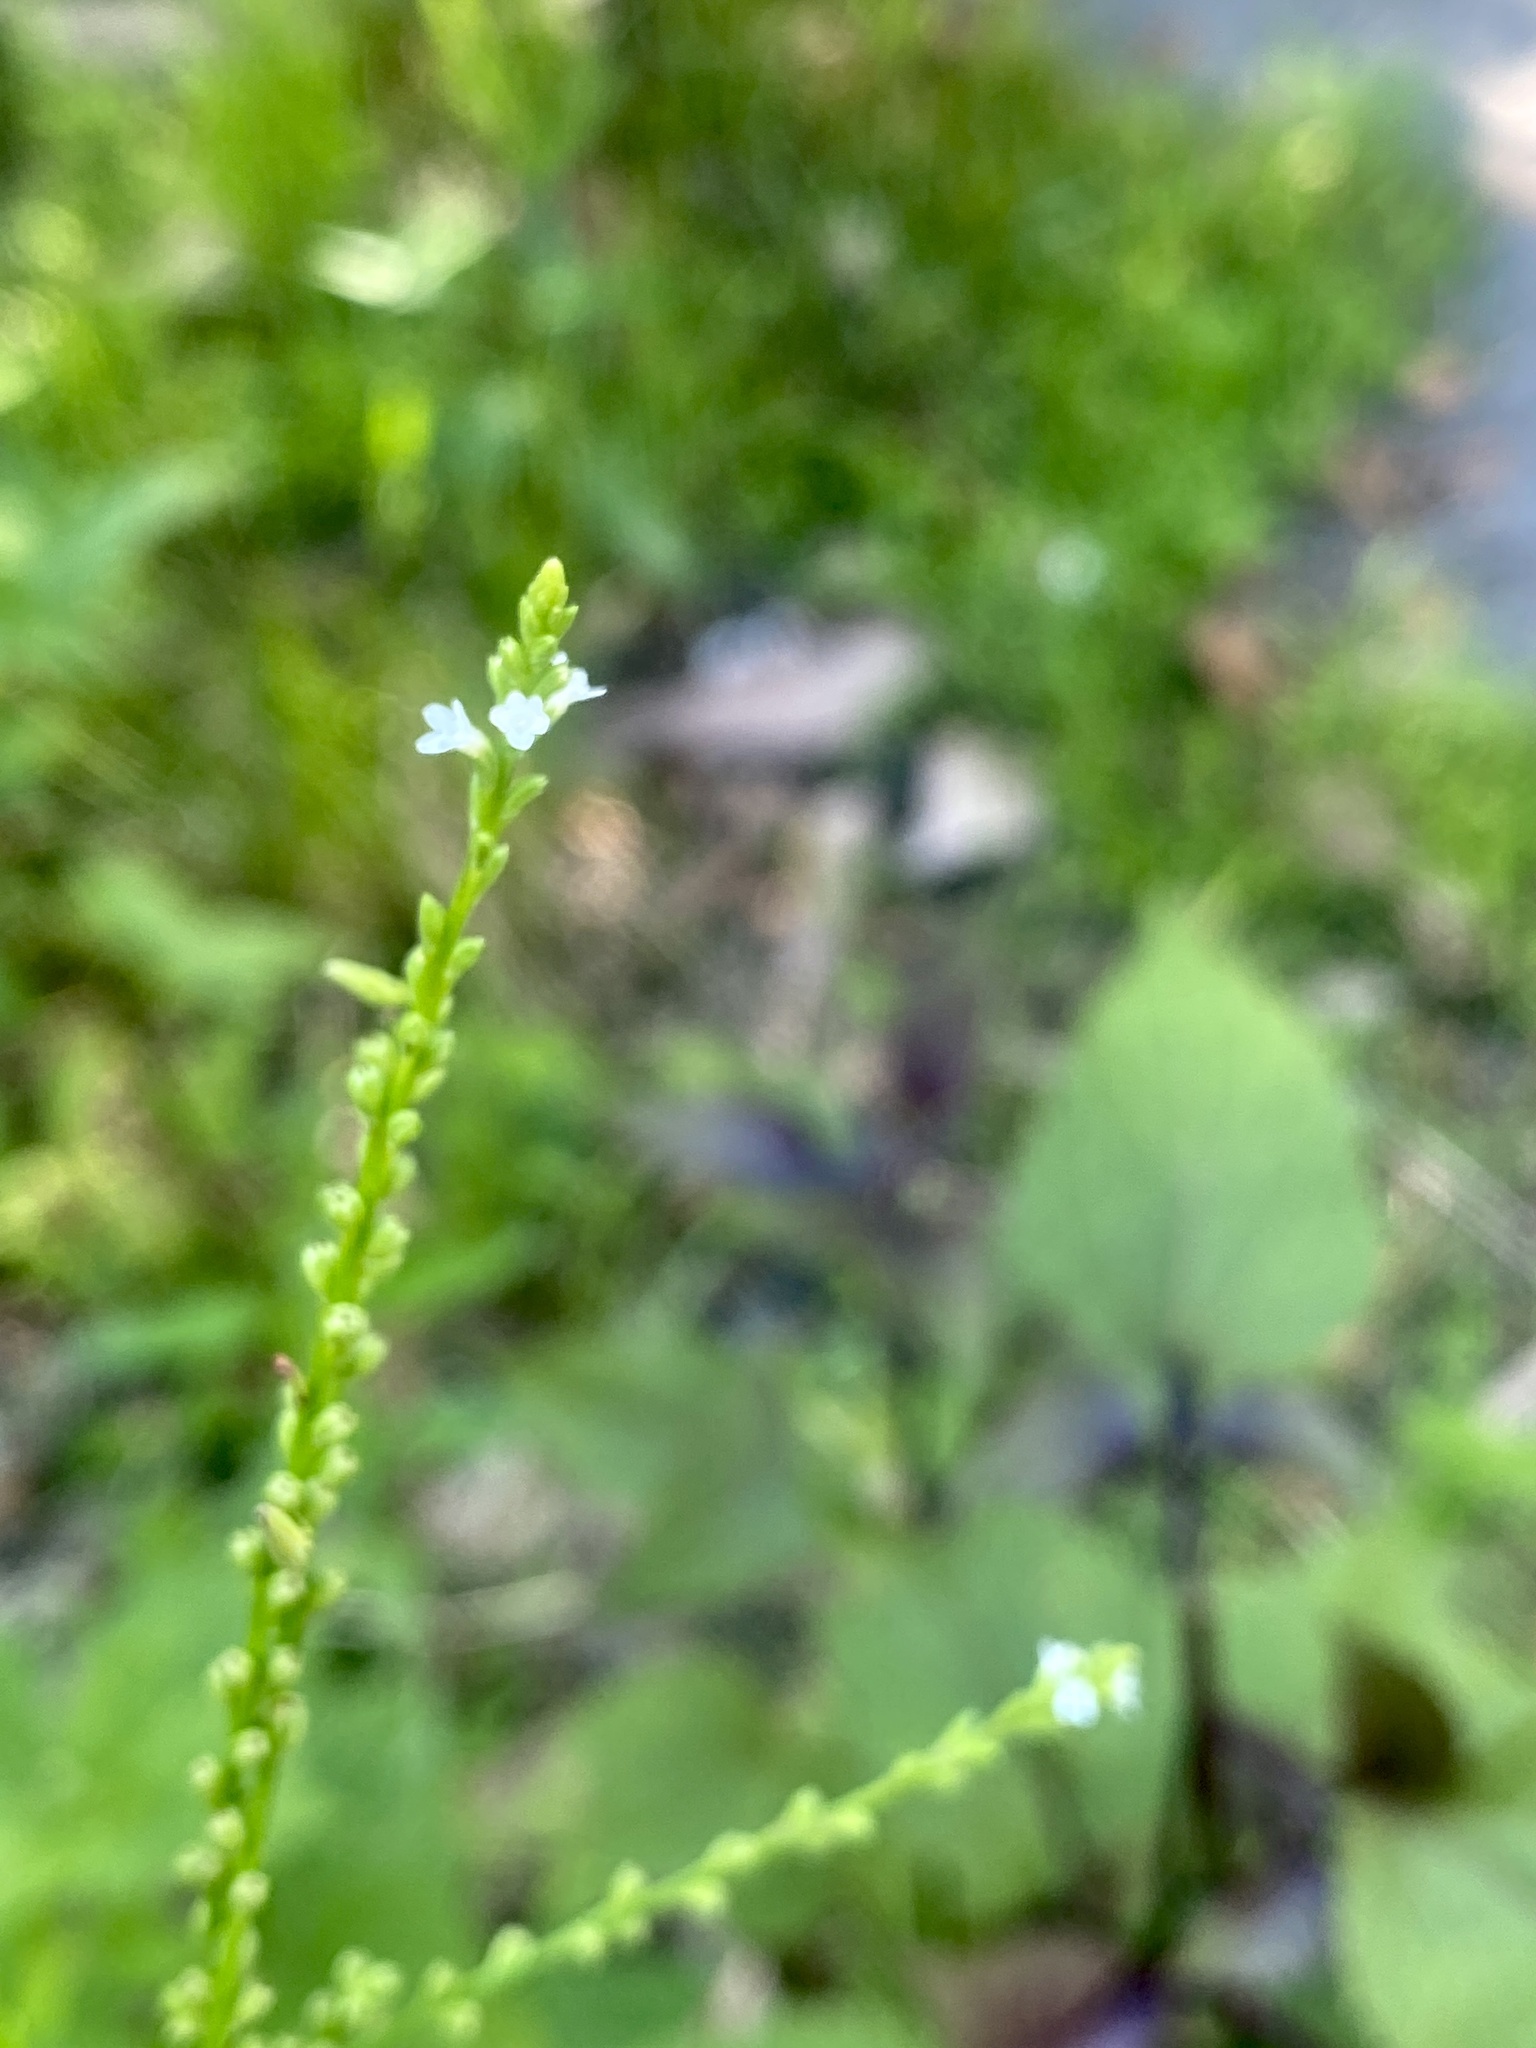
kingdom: Plantae
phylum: Tracheophyta
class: Magnoliopsida
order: Lamiales
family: Verbenaceae
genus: Verbena
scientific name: Verbena urticifolia
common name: Nettle-leaved vervain
